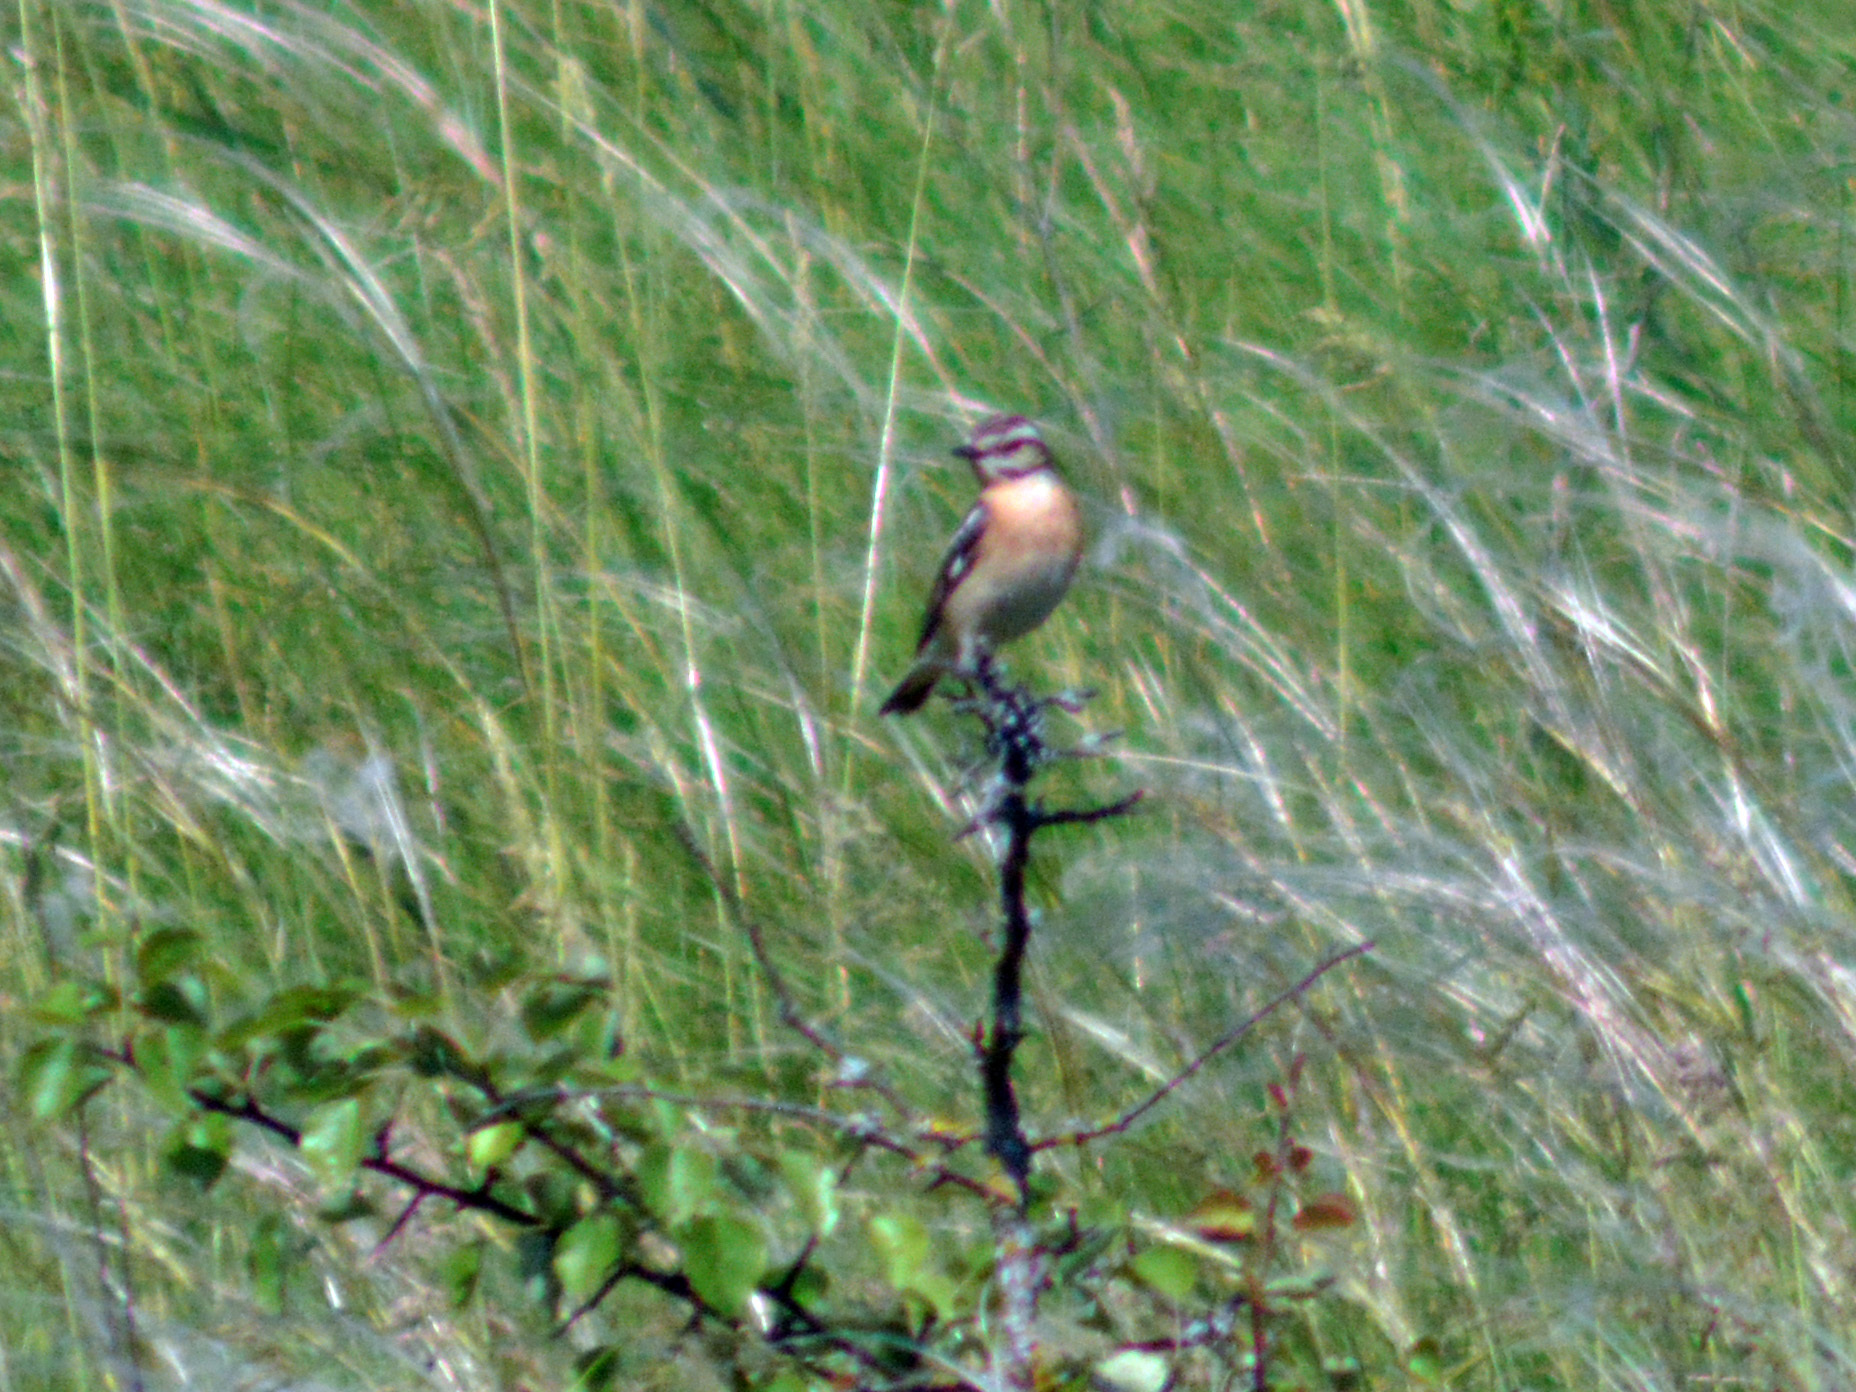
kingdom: Animalia
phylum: Chordata
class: Aves
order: Passeriformes
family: Muscicapidae
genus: Saxicola
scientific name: Saxicola rubetra
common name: Whinchat
